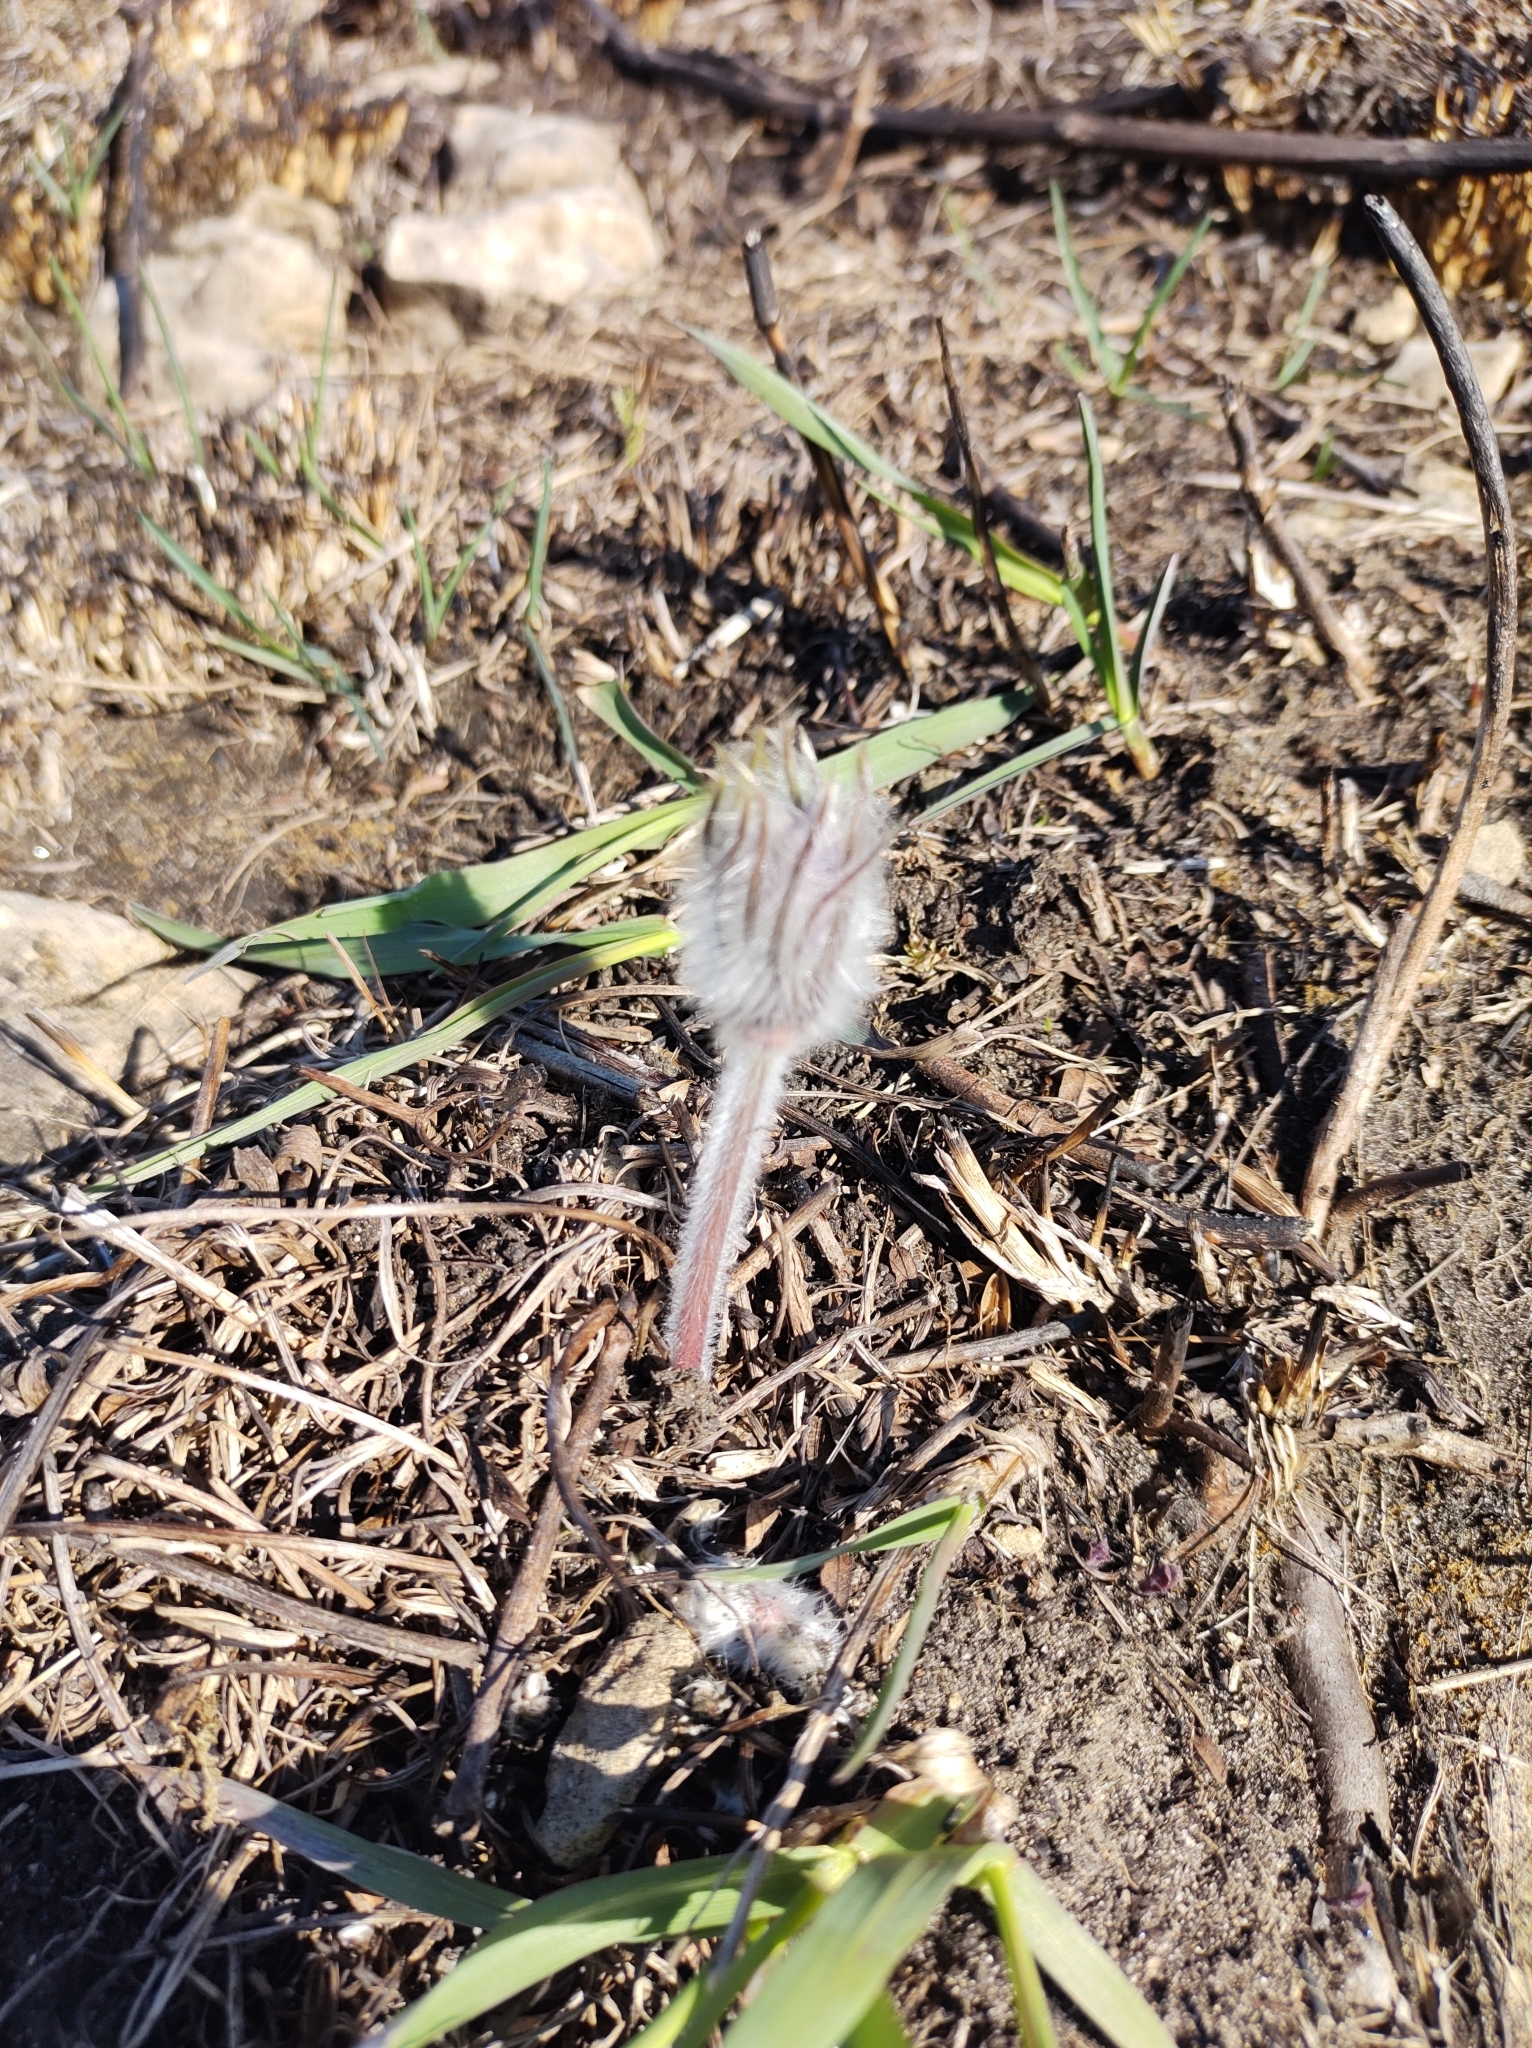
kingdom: Plantae
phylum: Tracheophyta
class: Magnoliopsida
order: Ranunculales
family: Ranunculaceae
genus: Pulsatilla
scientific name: Pulsatilla nuttalliana
